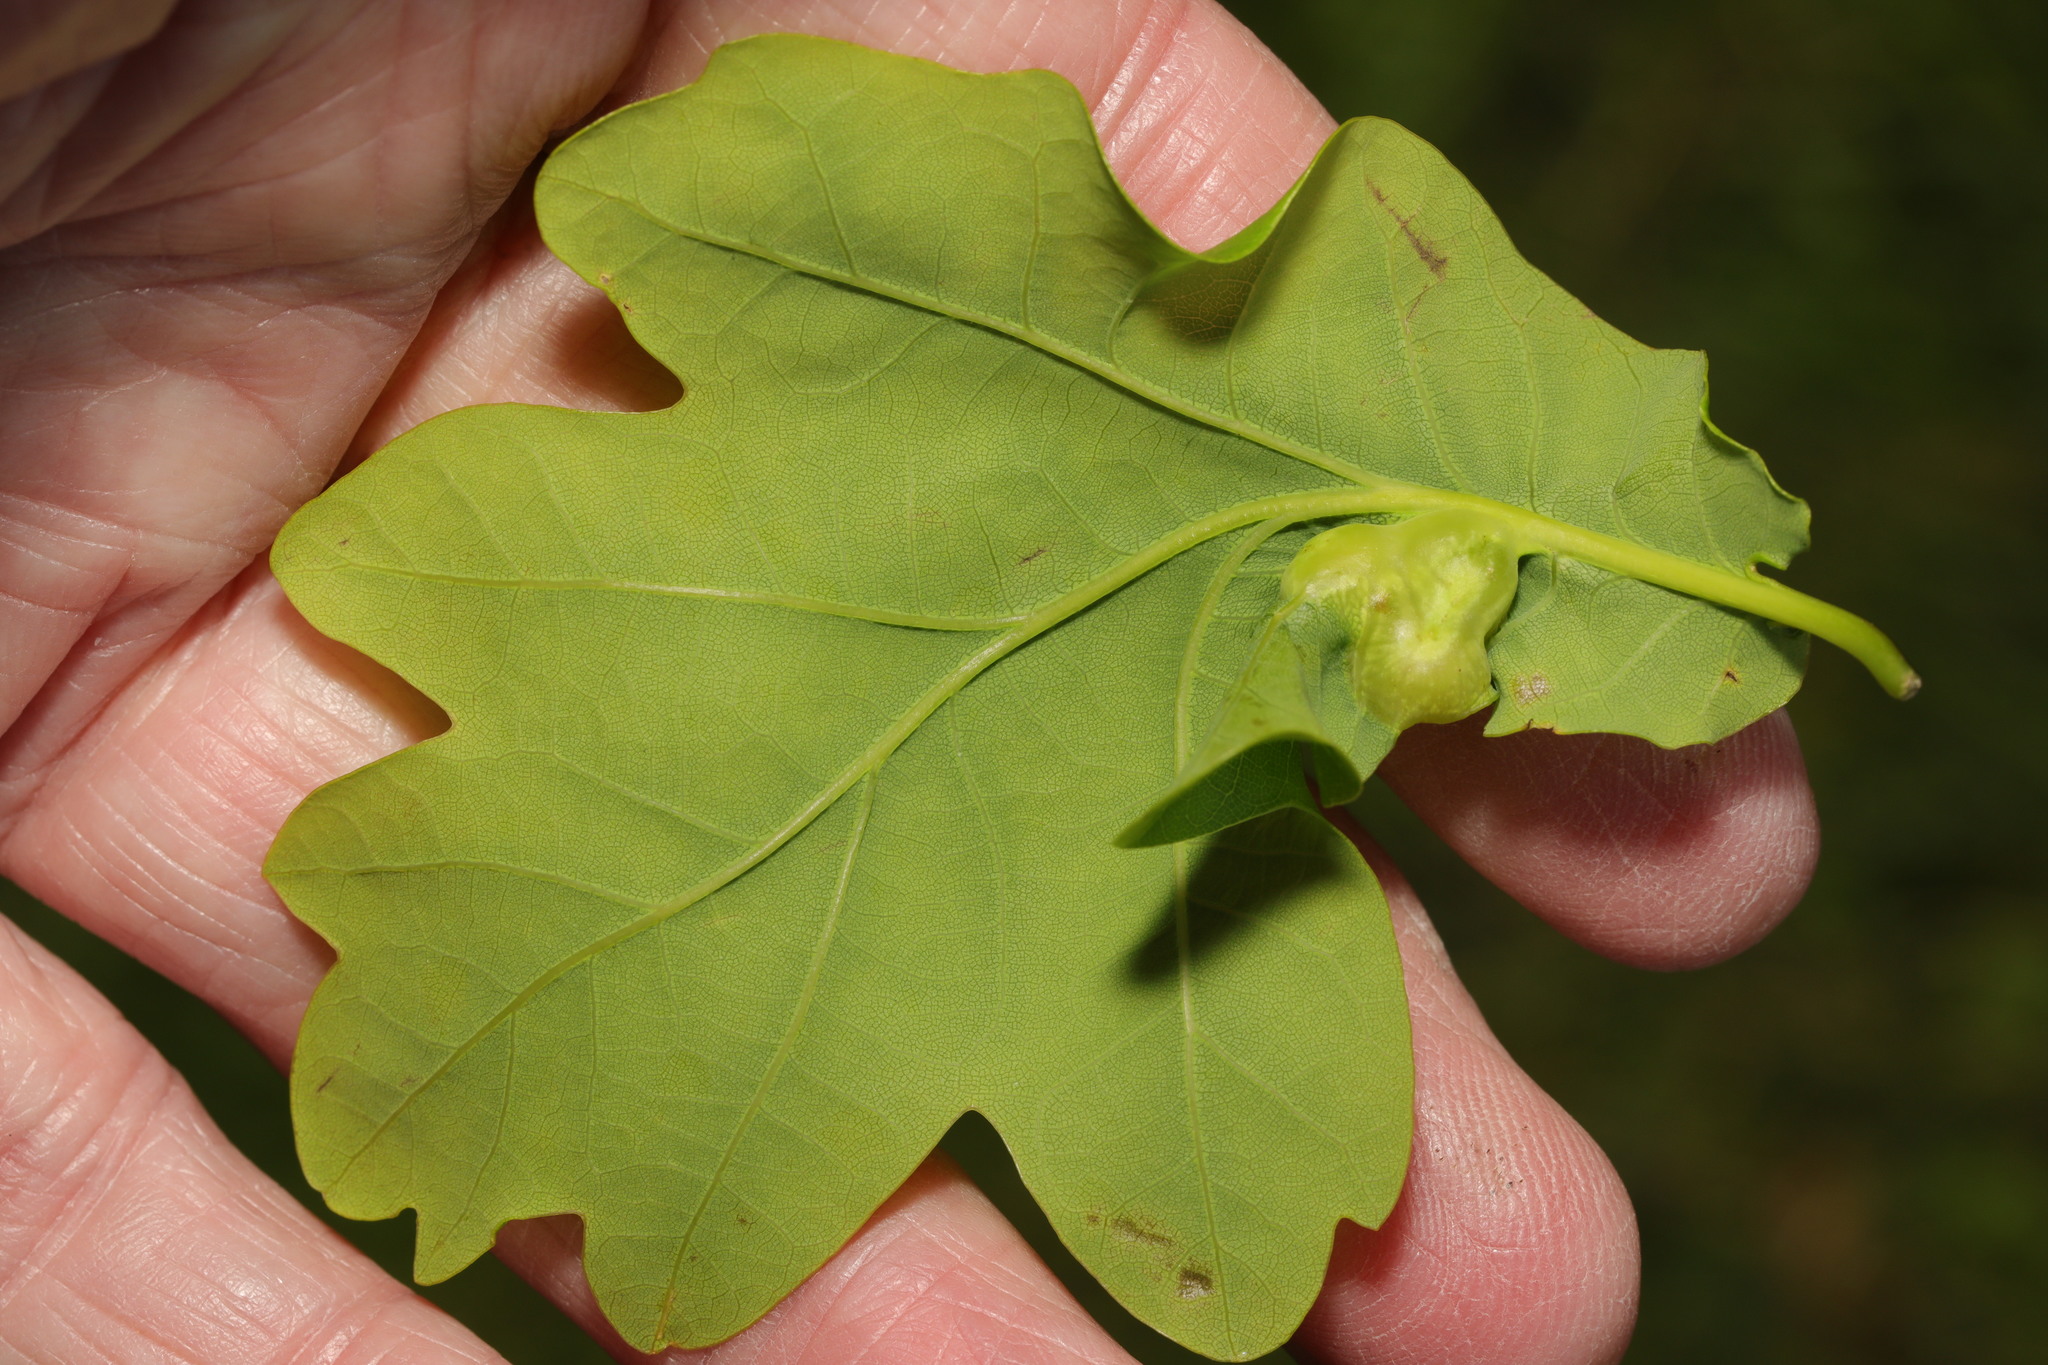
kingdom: Animalia
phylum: Arthropoda
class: Insecta
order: Hymenoptera
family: Cynipidae
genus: Andricus
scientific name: Andricus curvator
